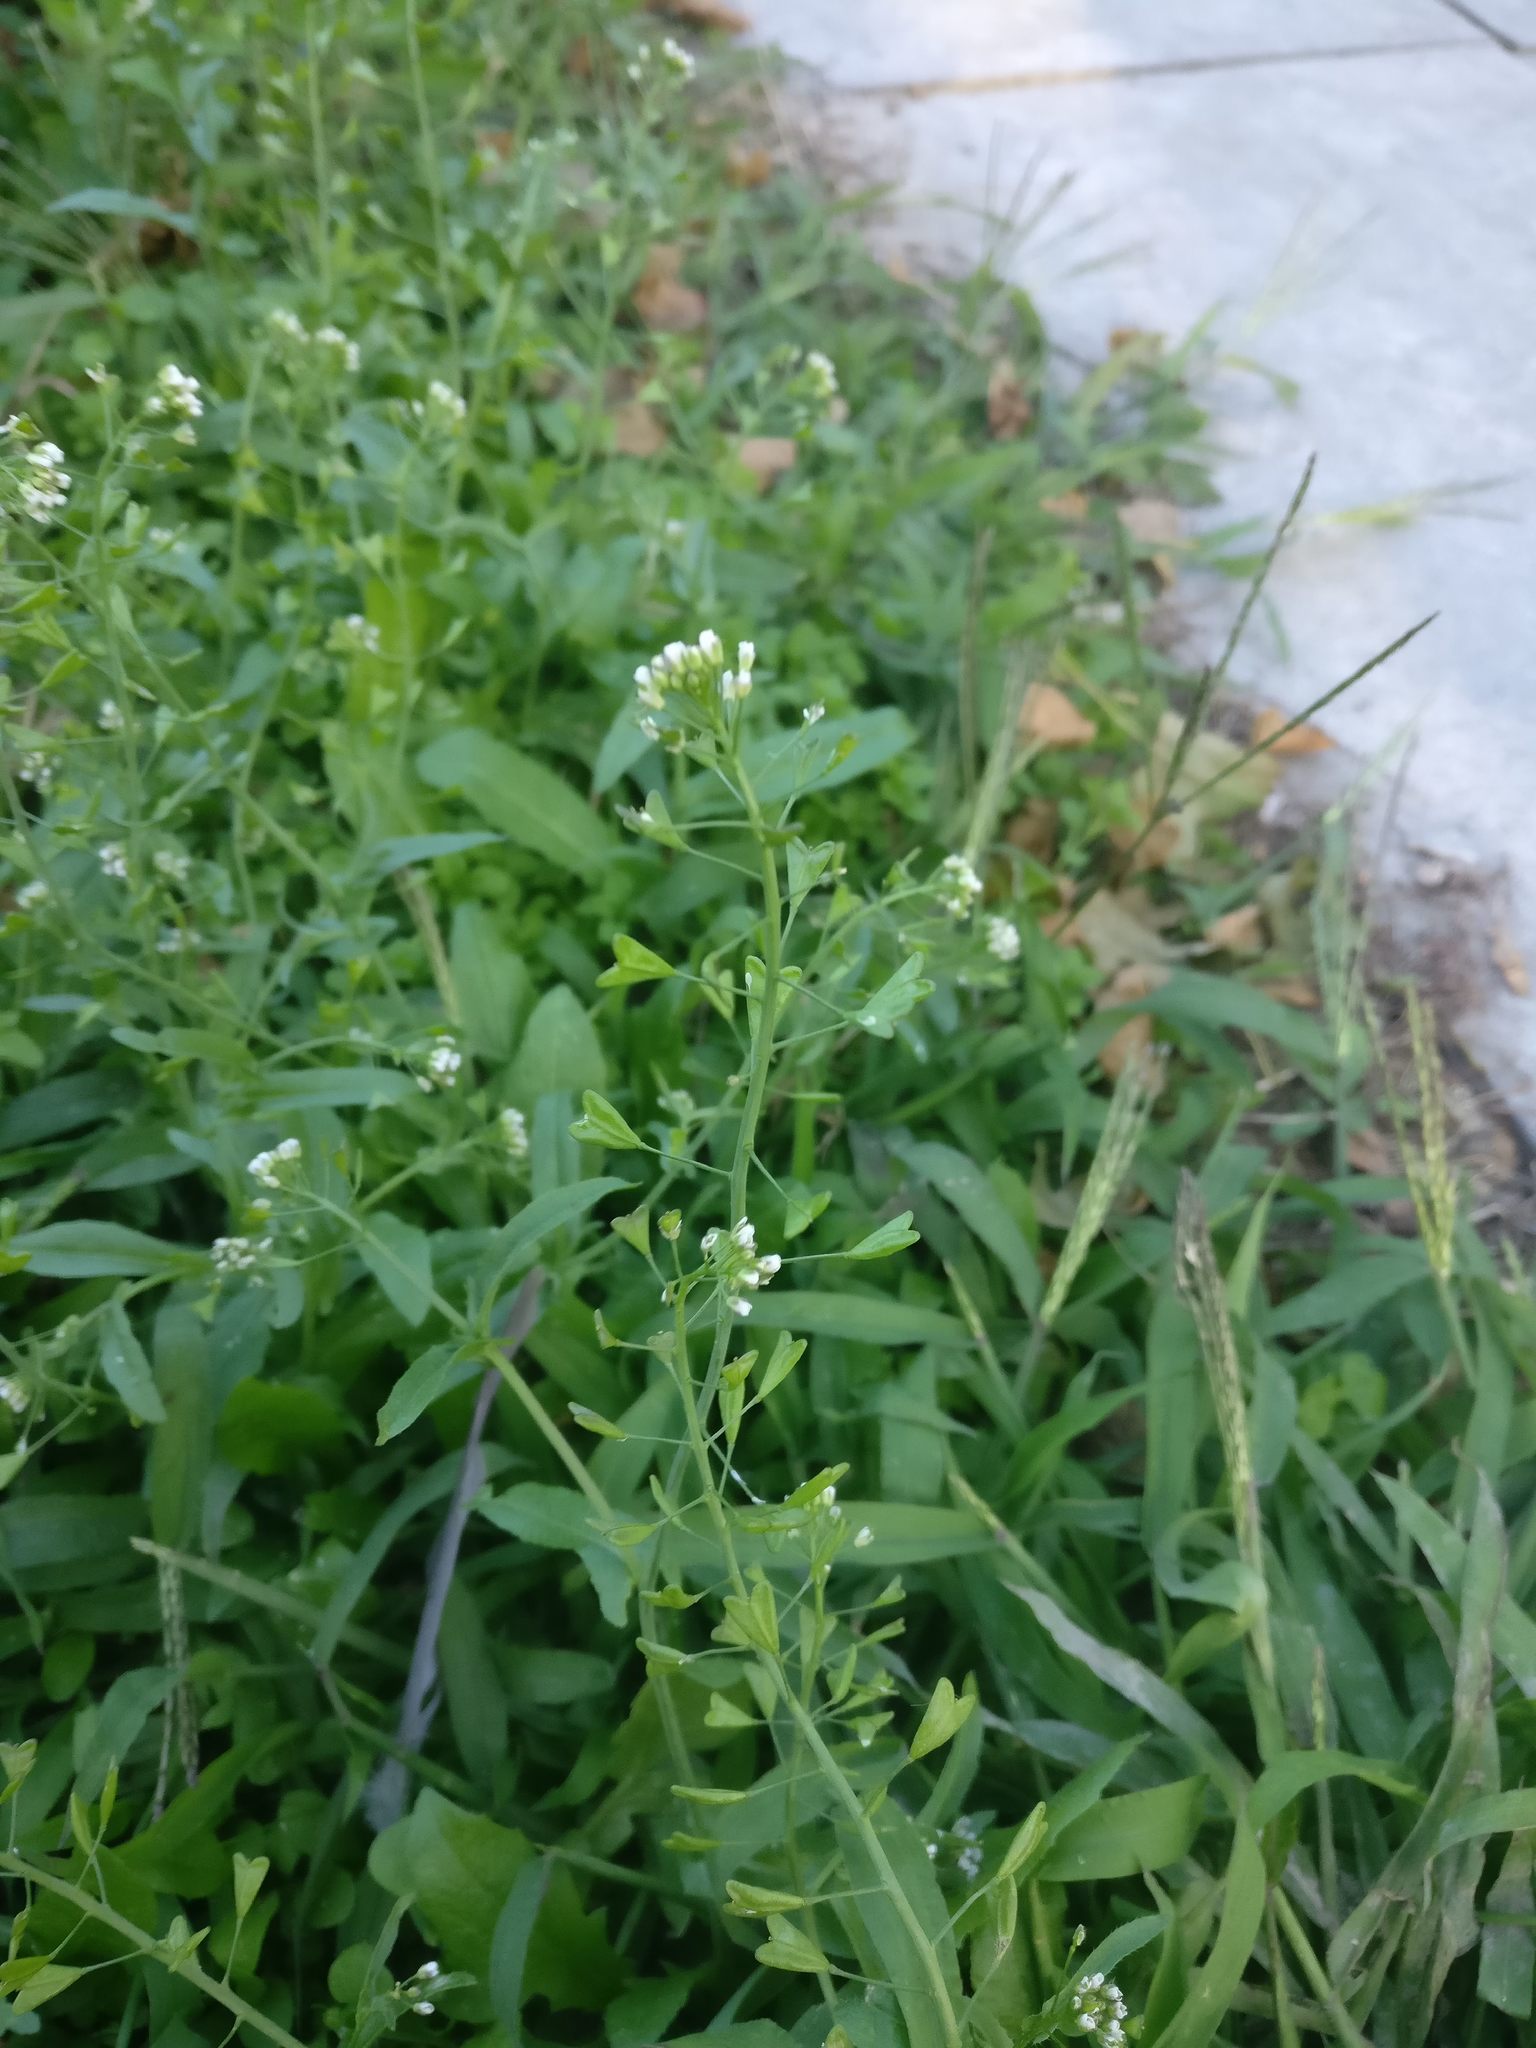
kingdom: Plantae
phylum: Tracheophyta
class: Magnoliopsida
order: Brassicales
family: Brassicaceae
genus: Capsella
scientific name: Capsella bursa-pastoris
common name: Shepherd's purse
